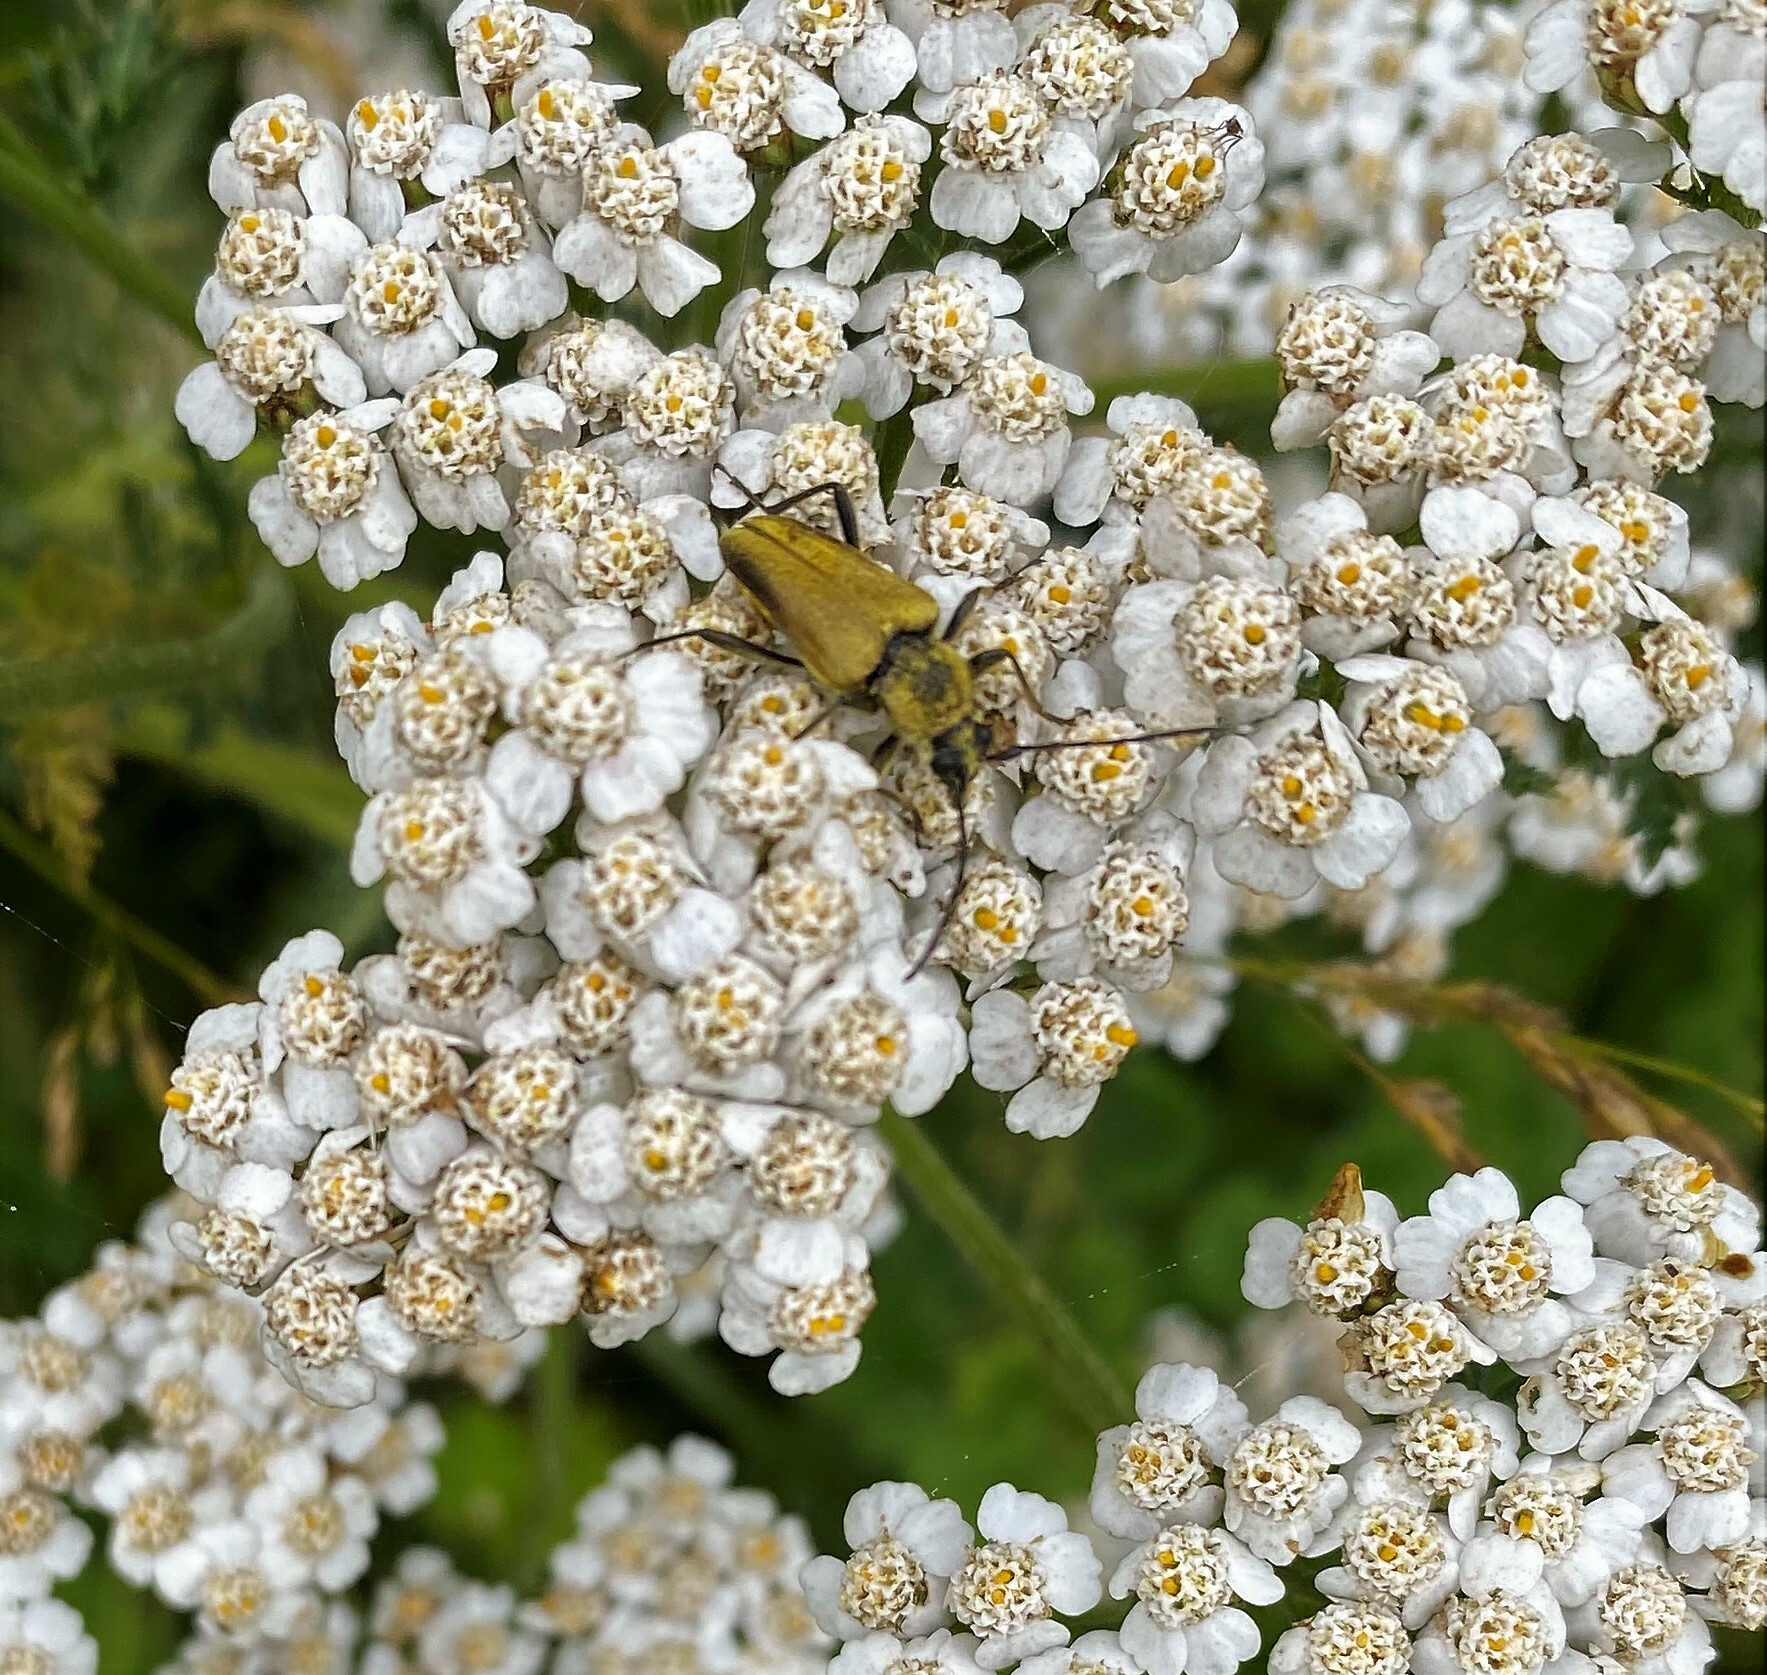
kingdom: Animalia
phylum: Arthropoda
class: Insecta
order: Coleoptera
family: Cerambycidae
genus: Cosmosalia
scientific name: Cosmosalia chrysocoma
